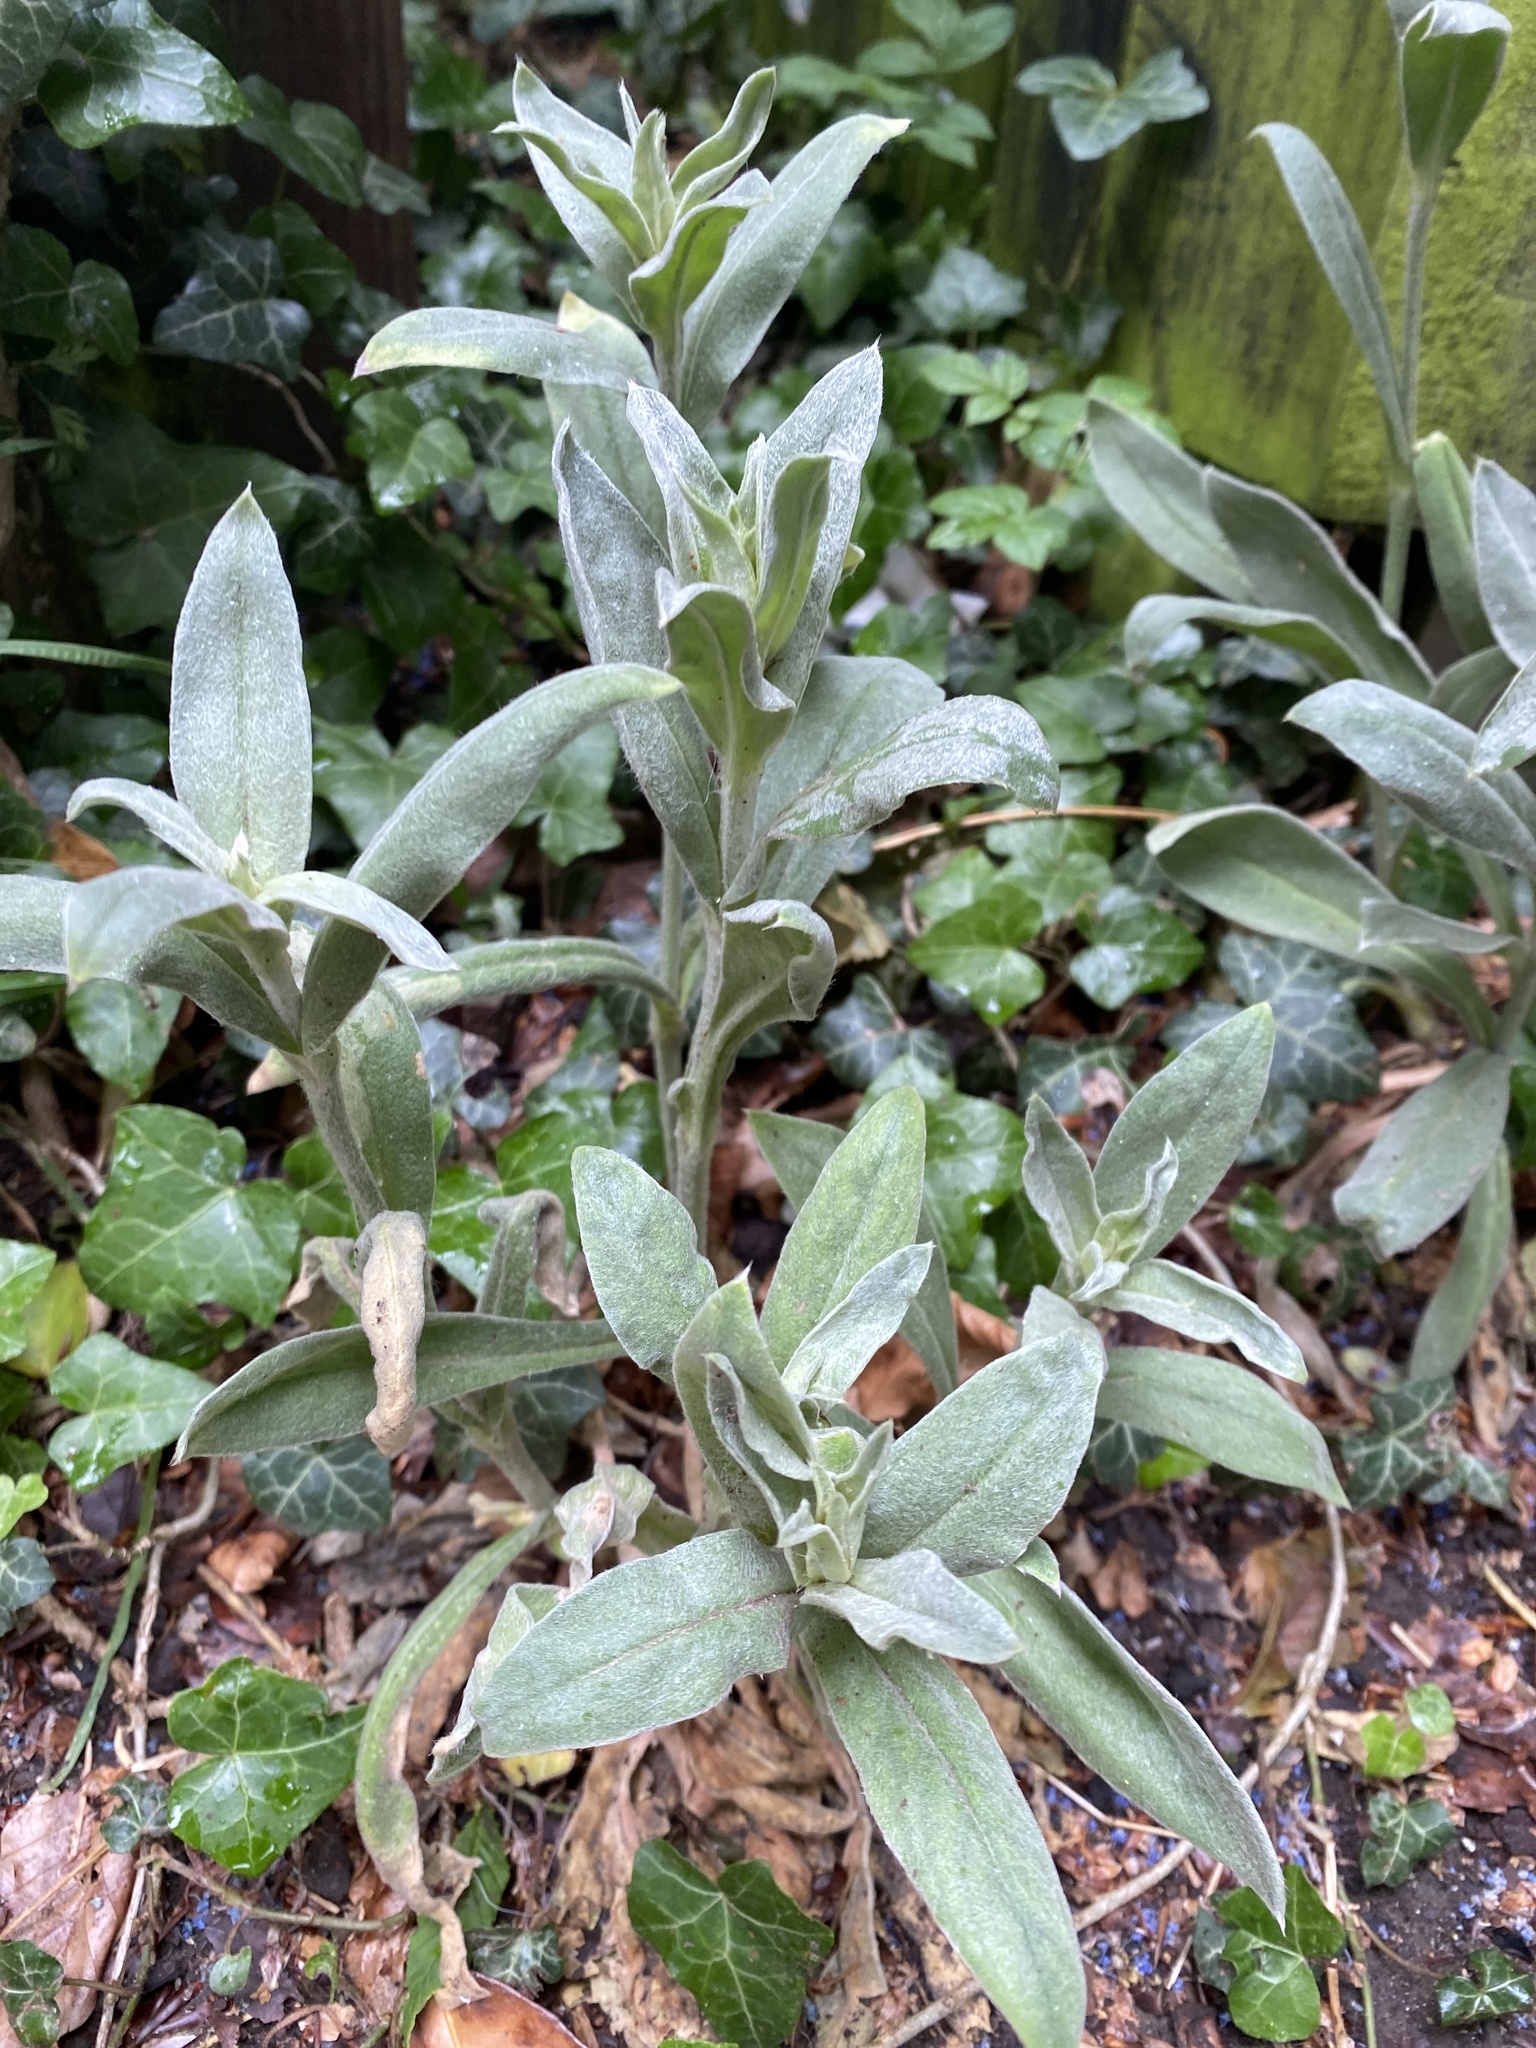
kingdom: Plantae
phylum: Tracheophyta
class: Magnoliopsida
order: Caryophyllales
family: Caryophyllaceae
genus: Silene
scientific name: Silene coronaria
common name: Rose campion
